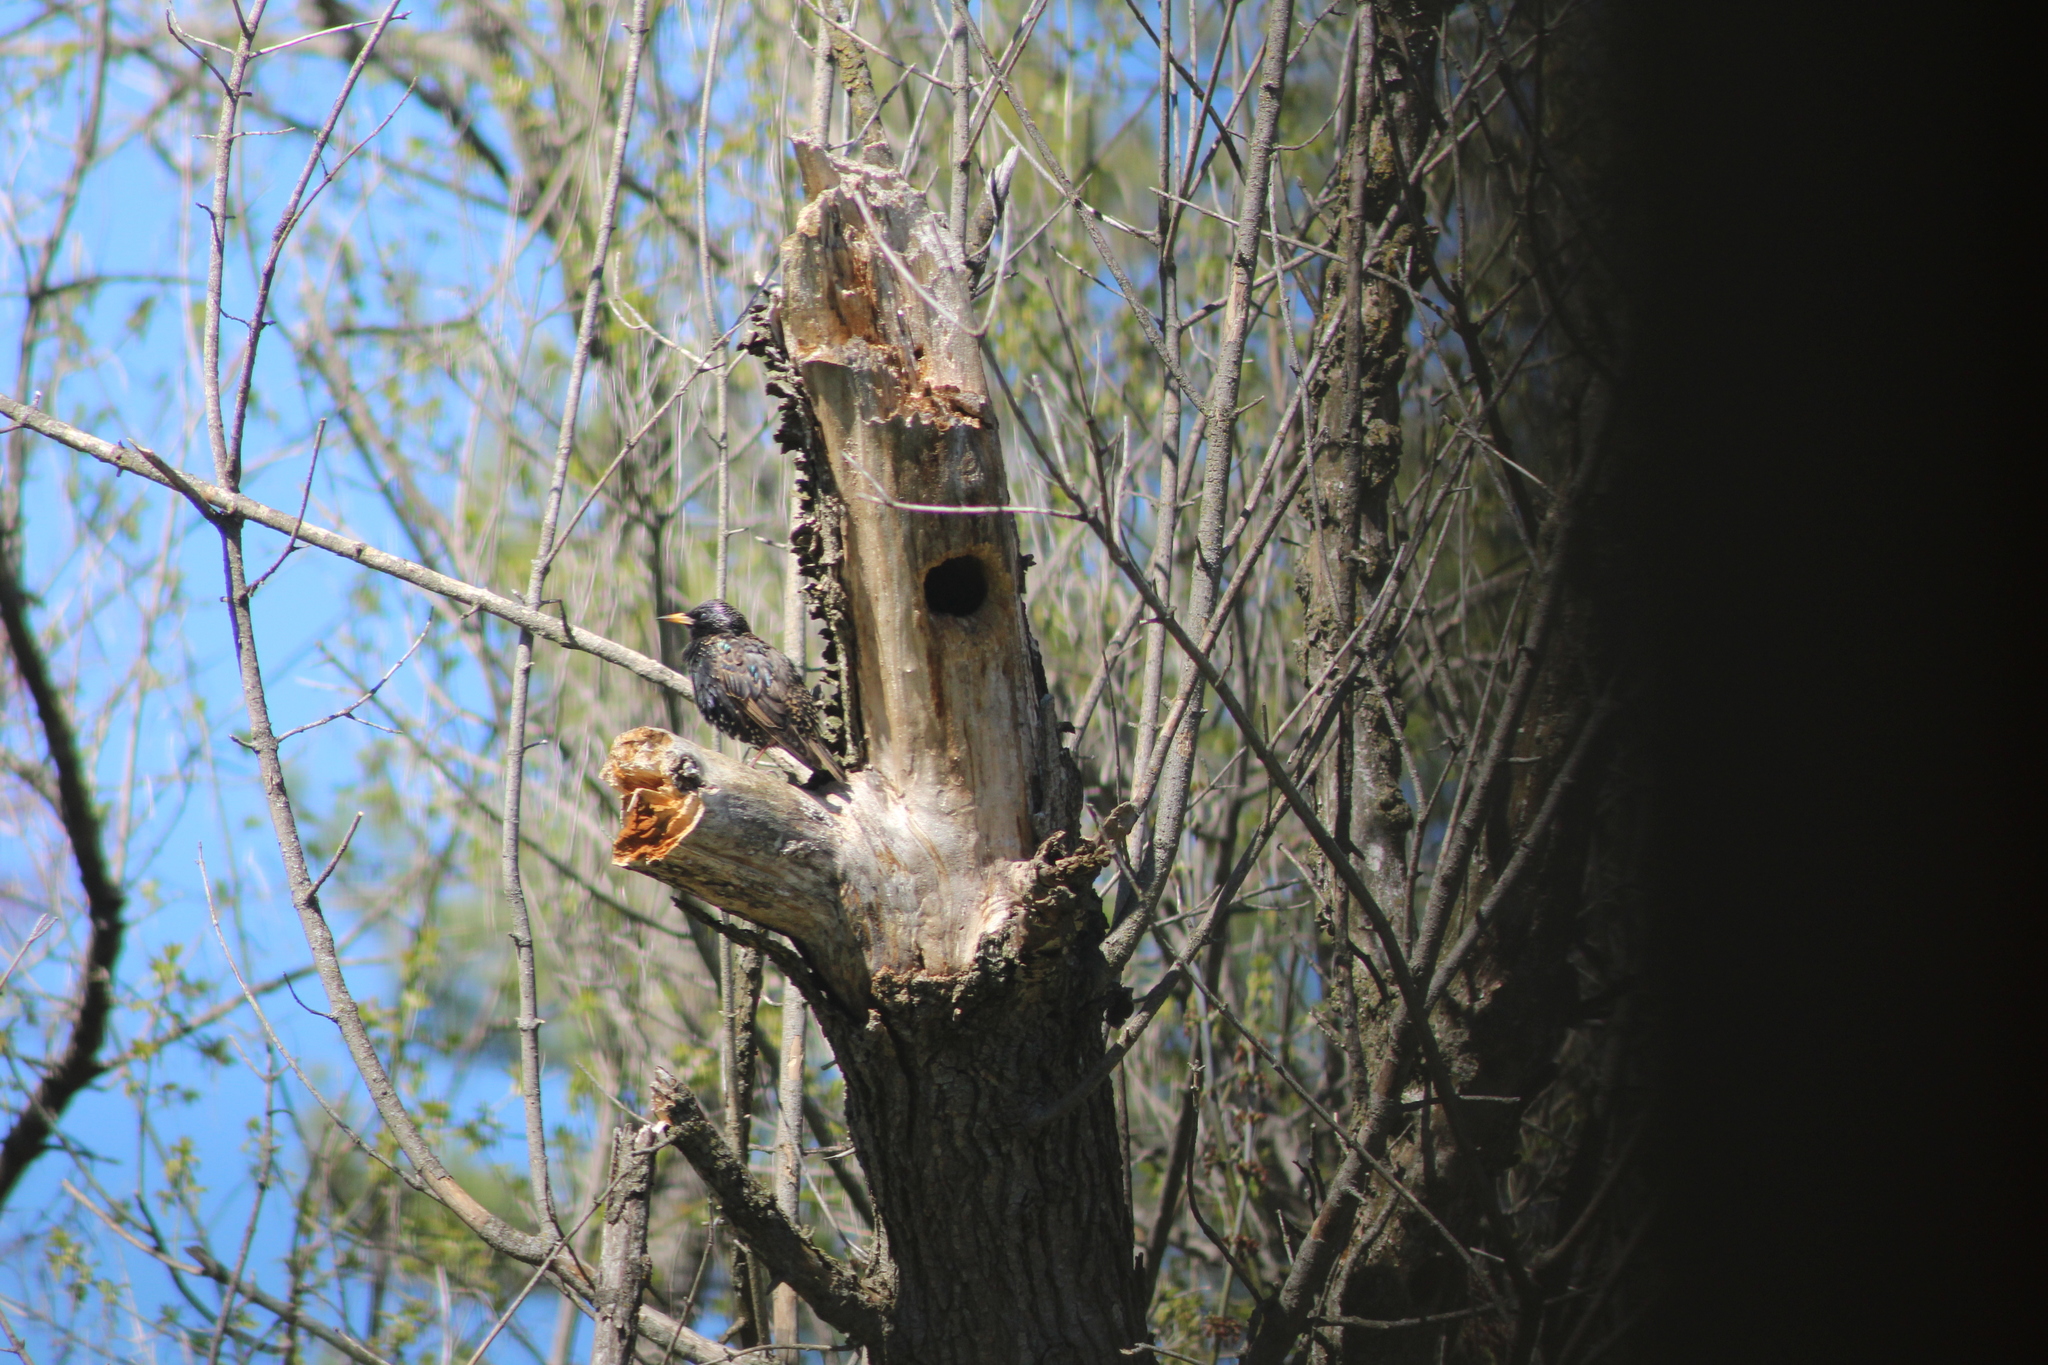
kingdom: Animalia
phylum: Chordata
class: Aves
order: Passeriformes
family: Sturnidae
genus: Sturnus
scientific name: Sturnus vulgaris
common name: Common starling
